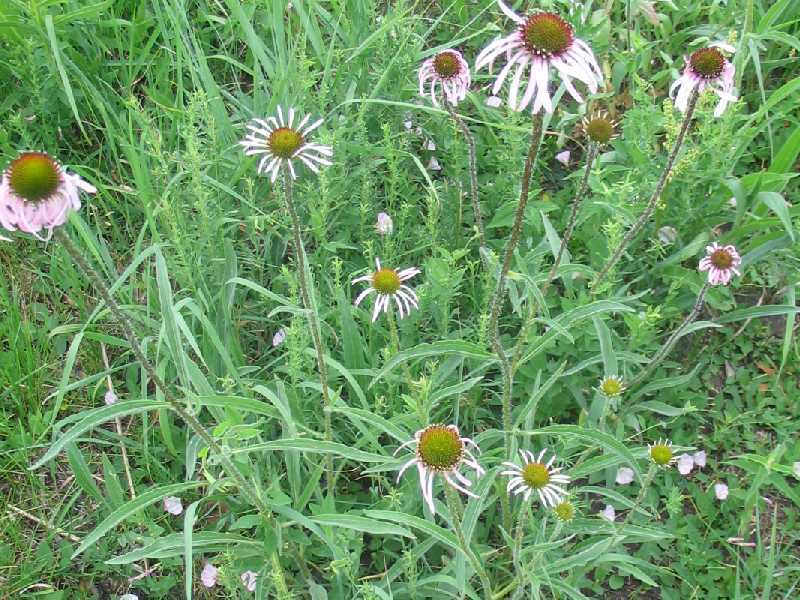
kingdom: Plantae
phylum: Tracheophyta
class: Magnoliopsida
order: Asterales
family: Asteraceae
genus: Echinacea
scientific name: Echinacea pallida
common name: Pale echinacea
